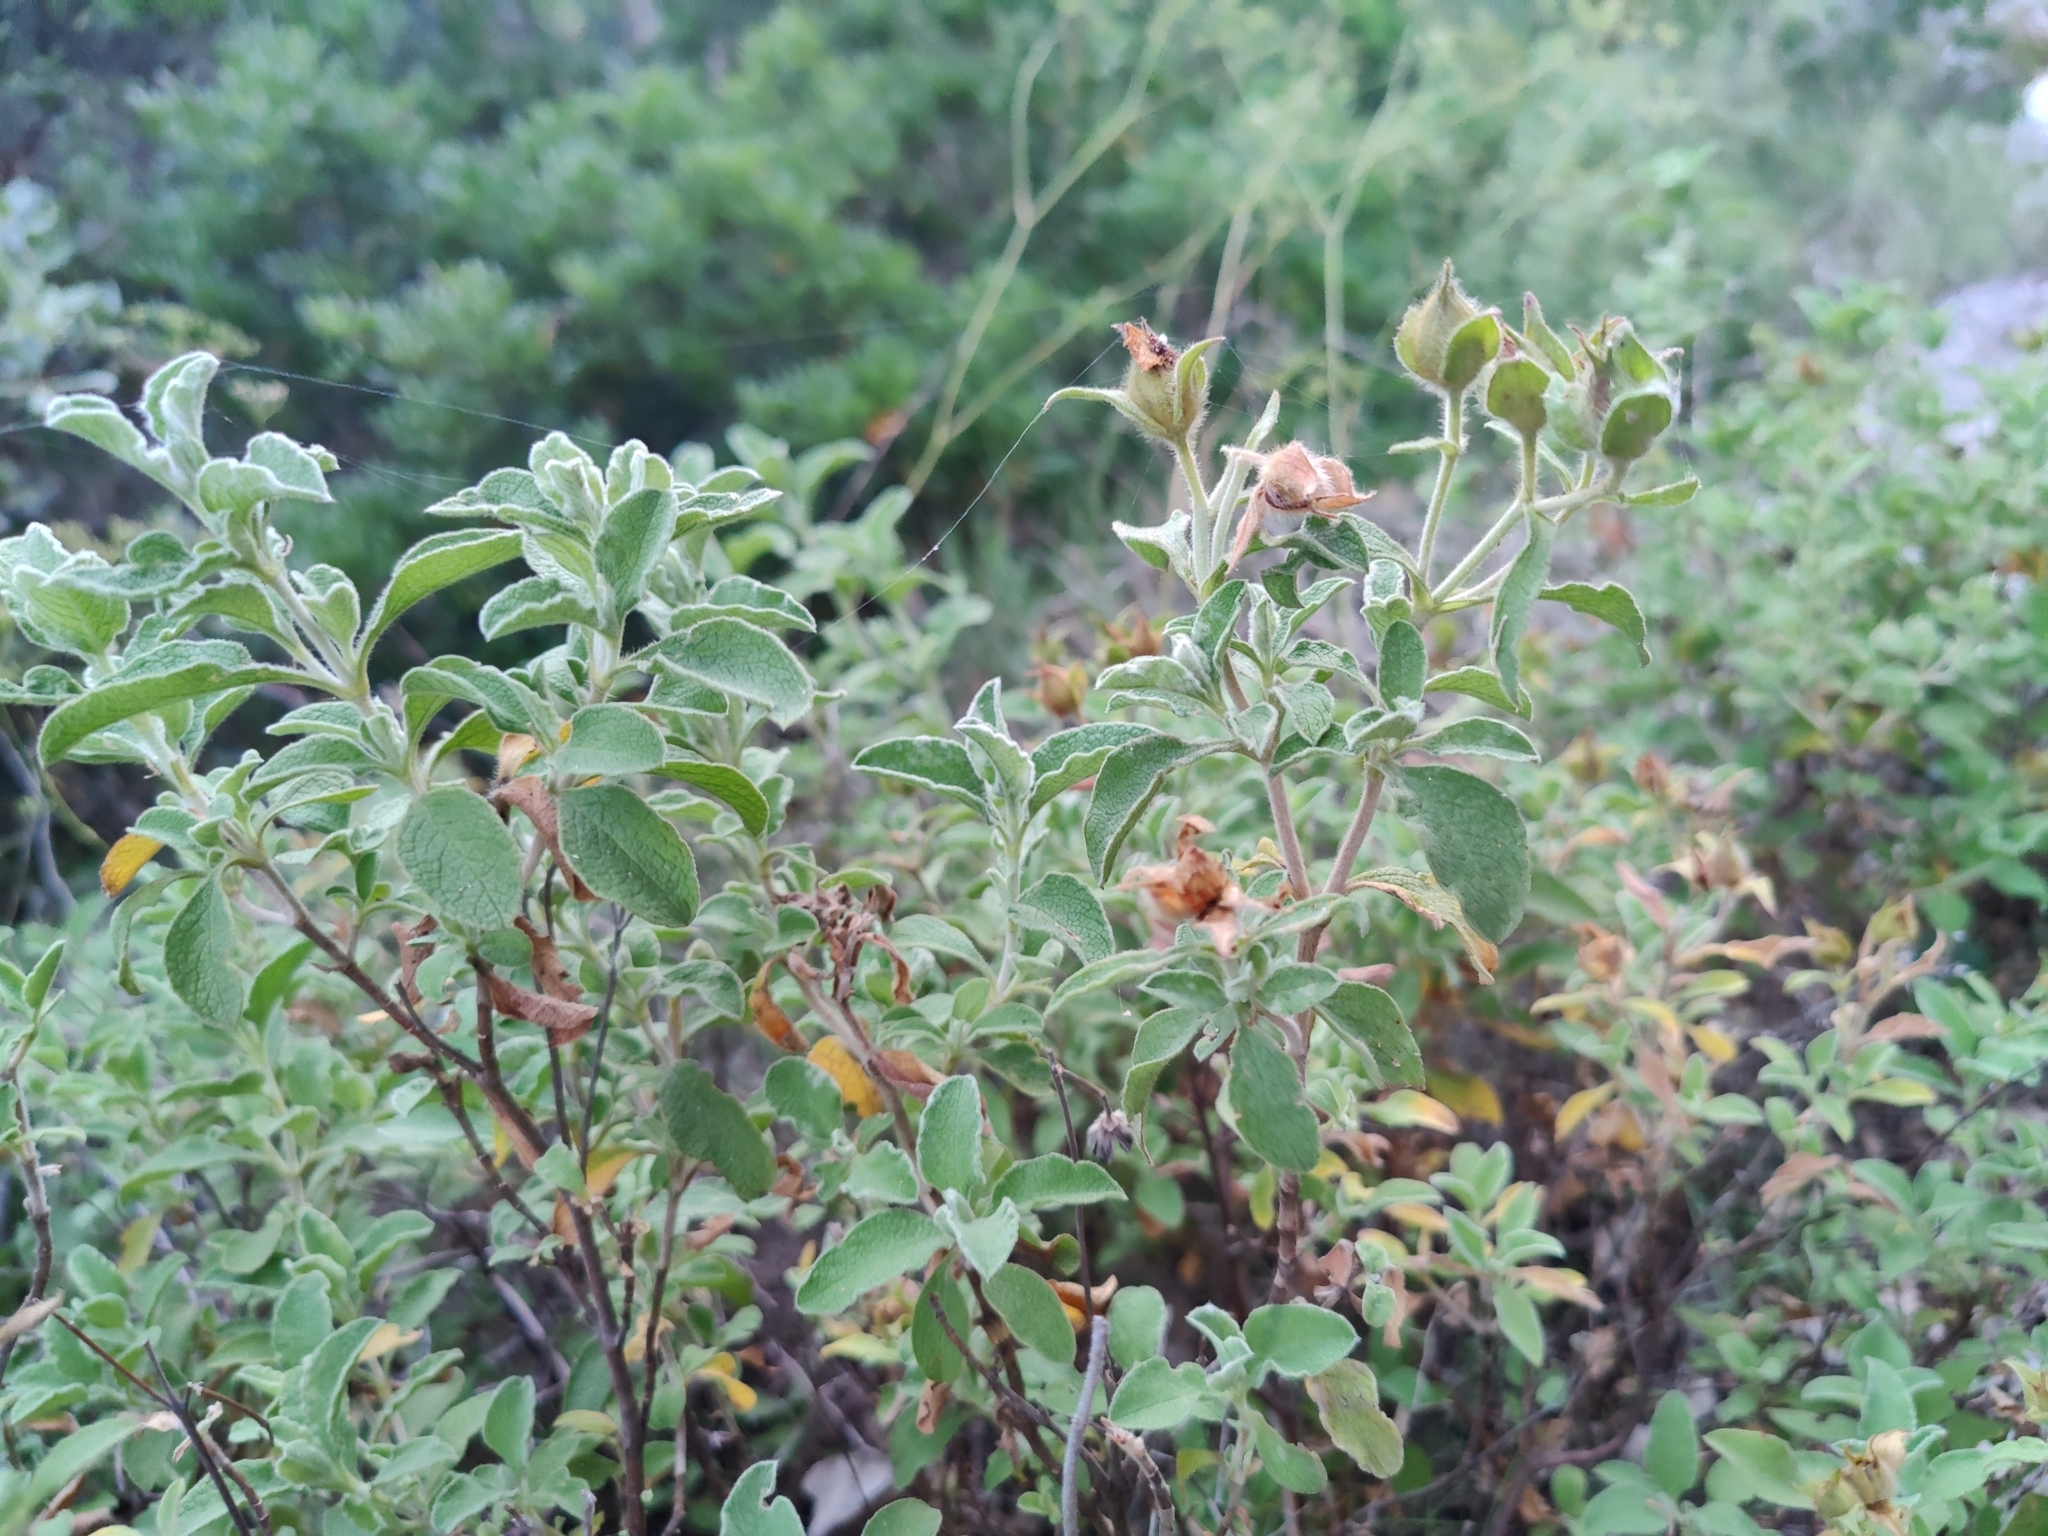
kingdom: Plantae
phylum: Tracheophyta
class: Magnoliopsida
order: Malvales
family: Cistaceae
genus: Cistus
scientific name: Cistus creticus
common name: Cretan rockrose
